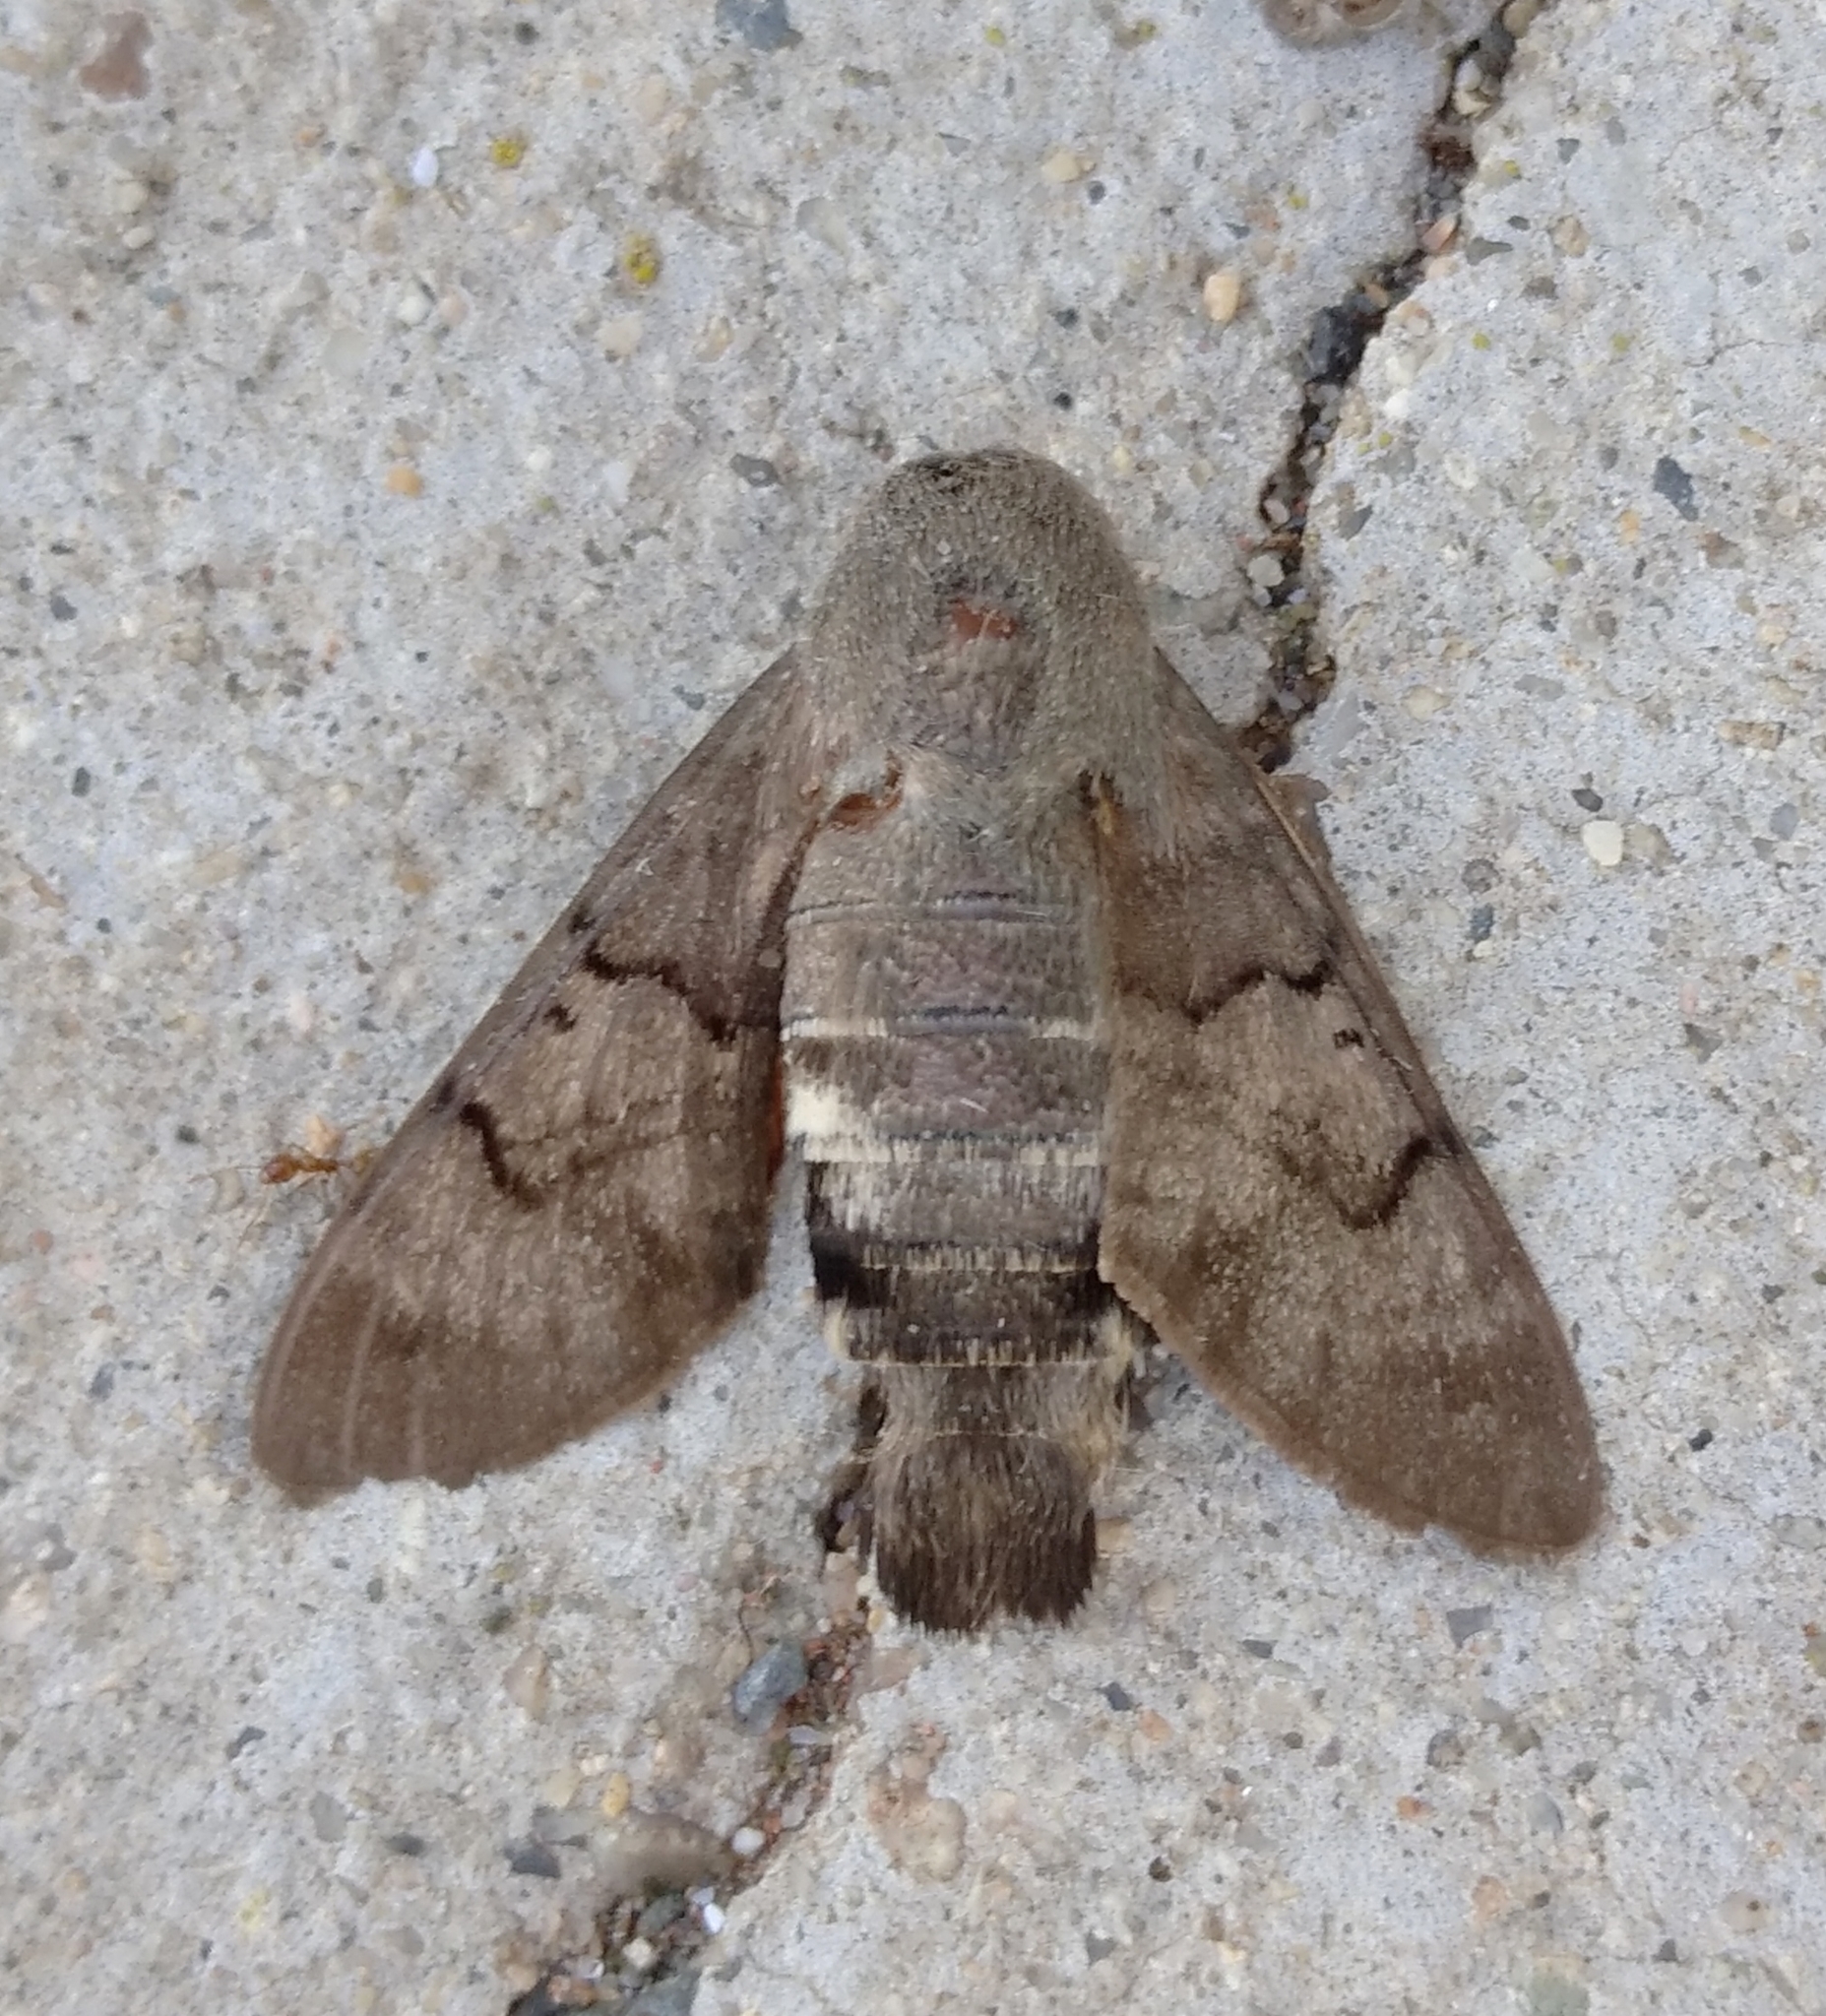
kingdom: Animalia
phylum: Arthropoda
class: Insecta
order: Lepidoptera
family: Sphingidae
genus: Macroglossum
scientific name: Macroglossum stellatarum
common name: Humming-bird hawk-moth
